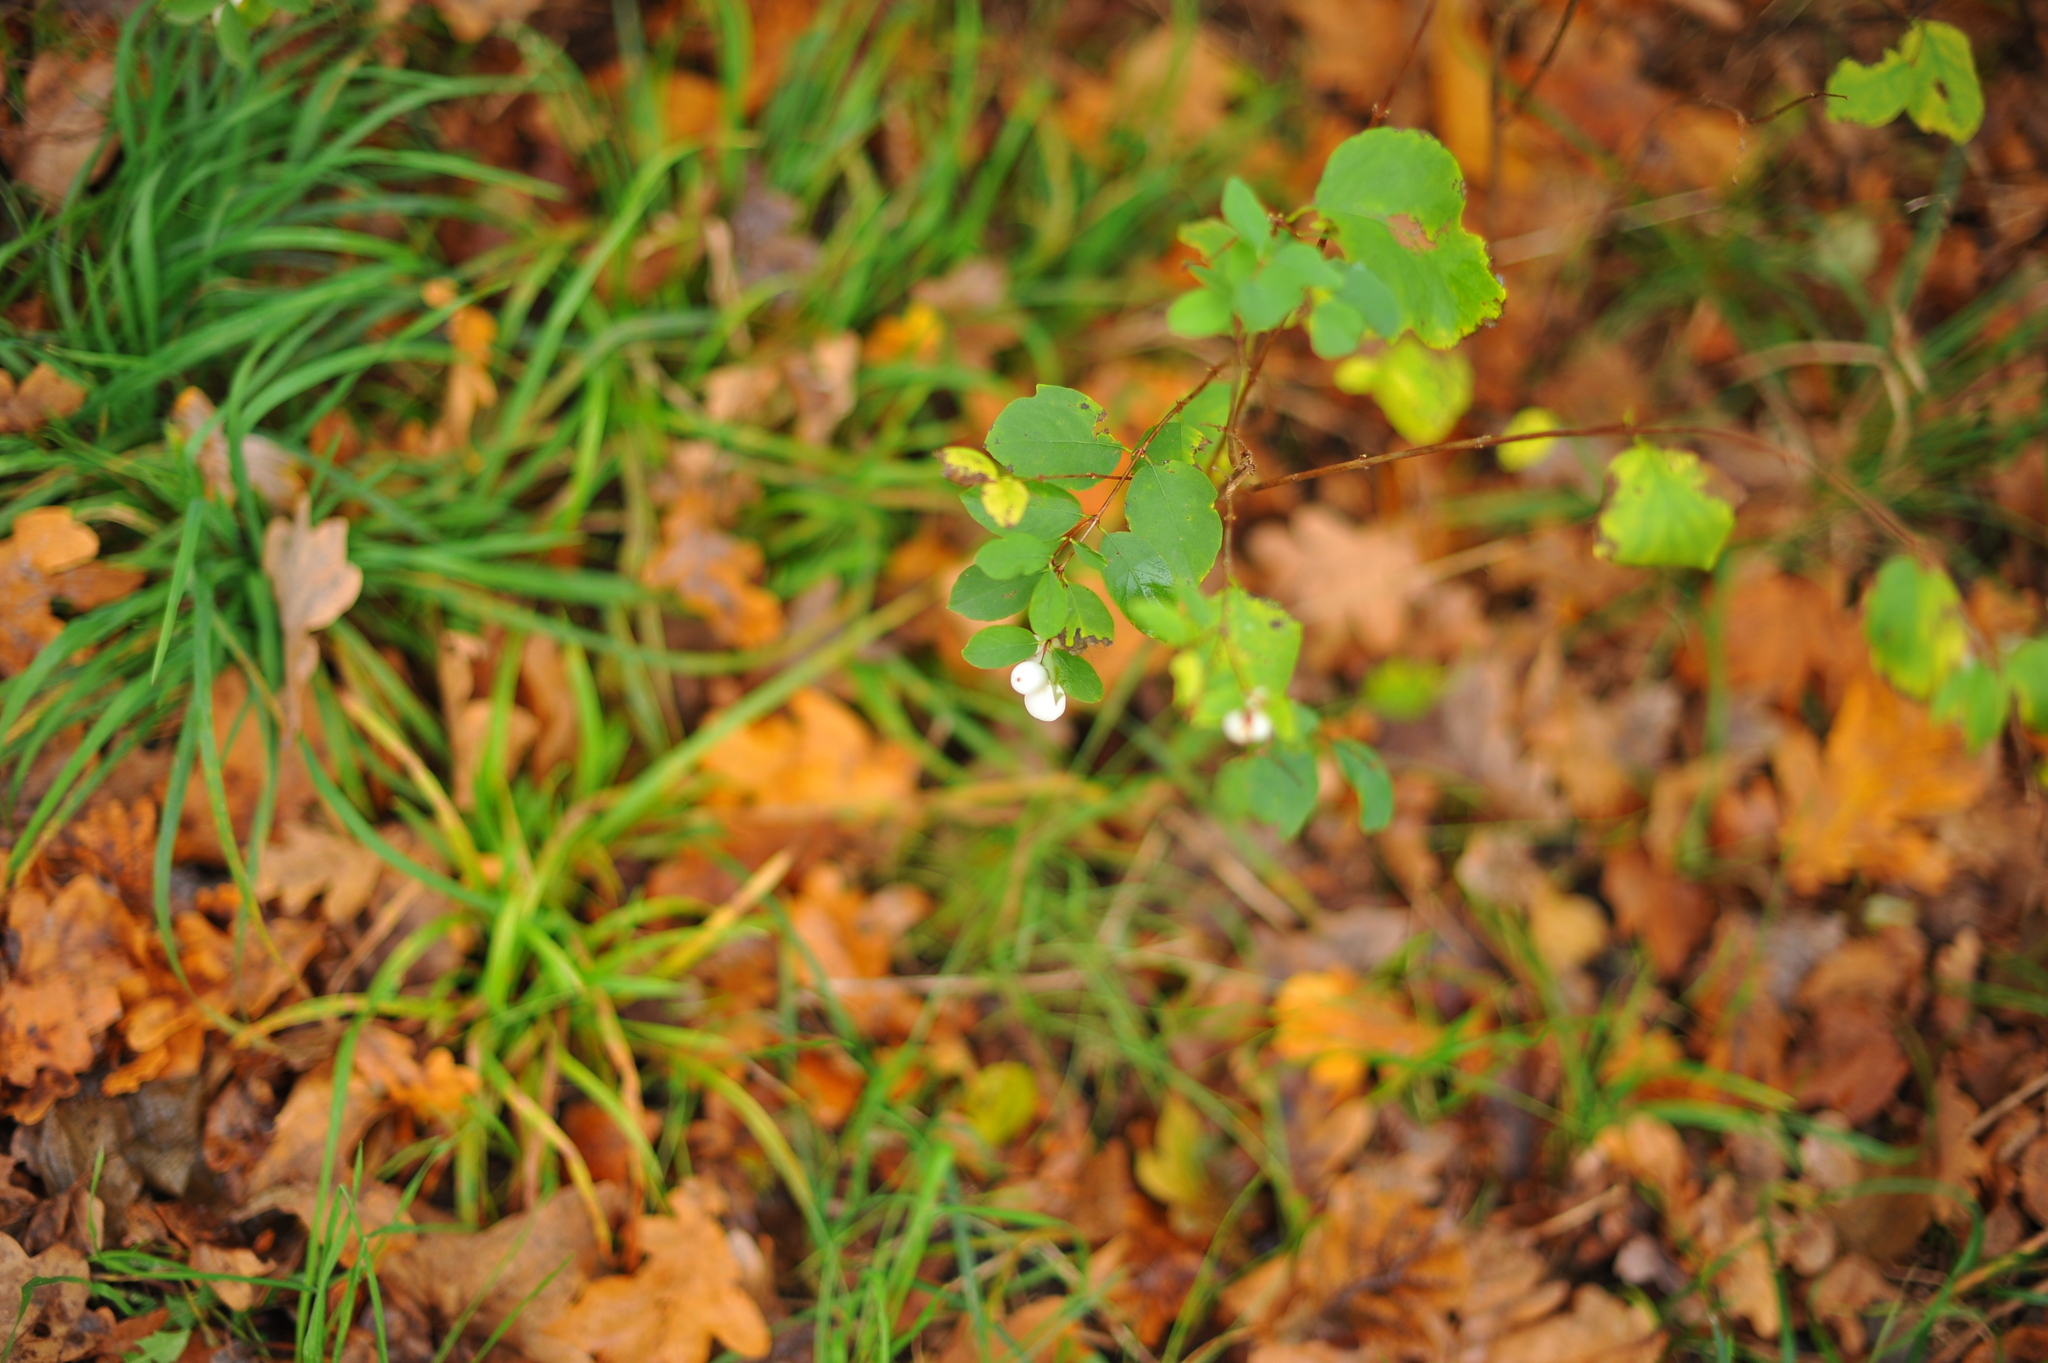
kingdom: Plantae
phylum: Tracheophyta
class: Magnoliopsida
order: Dipsacales
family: Caprifoliaceae
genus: Symphoricarpos
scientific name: Symphoricarpos albus
